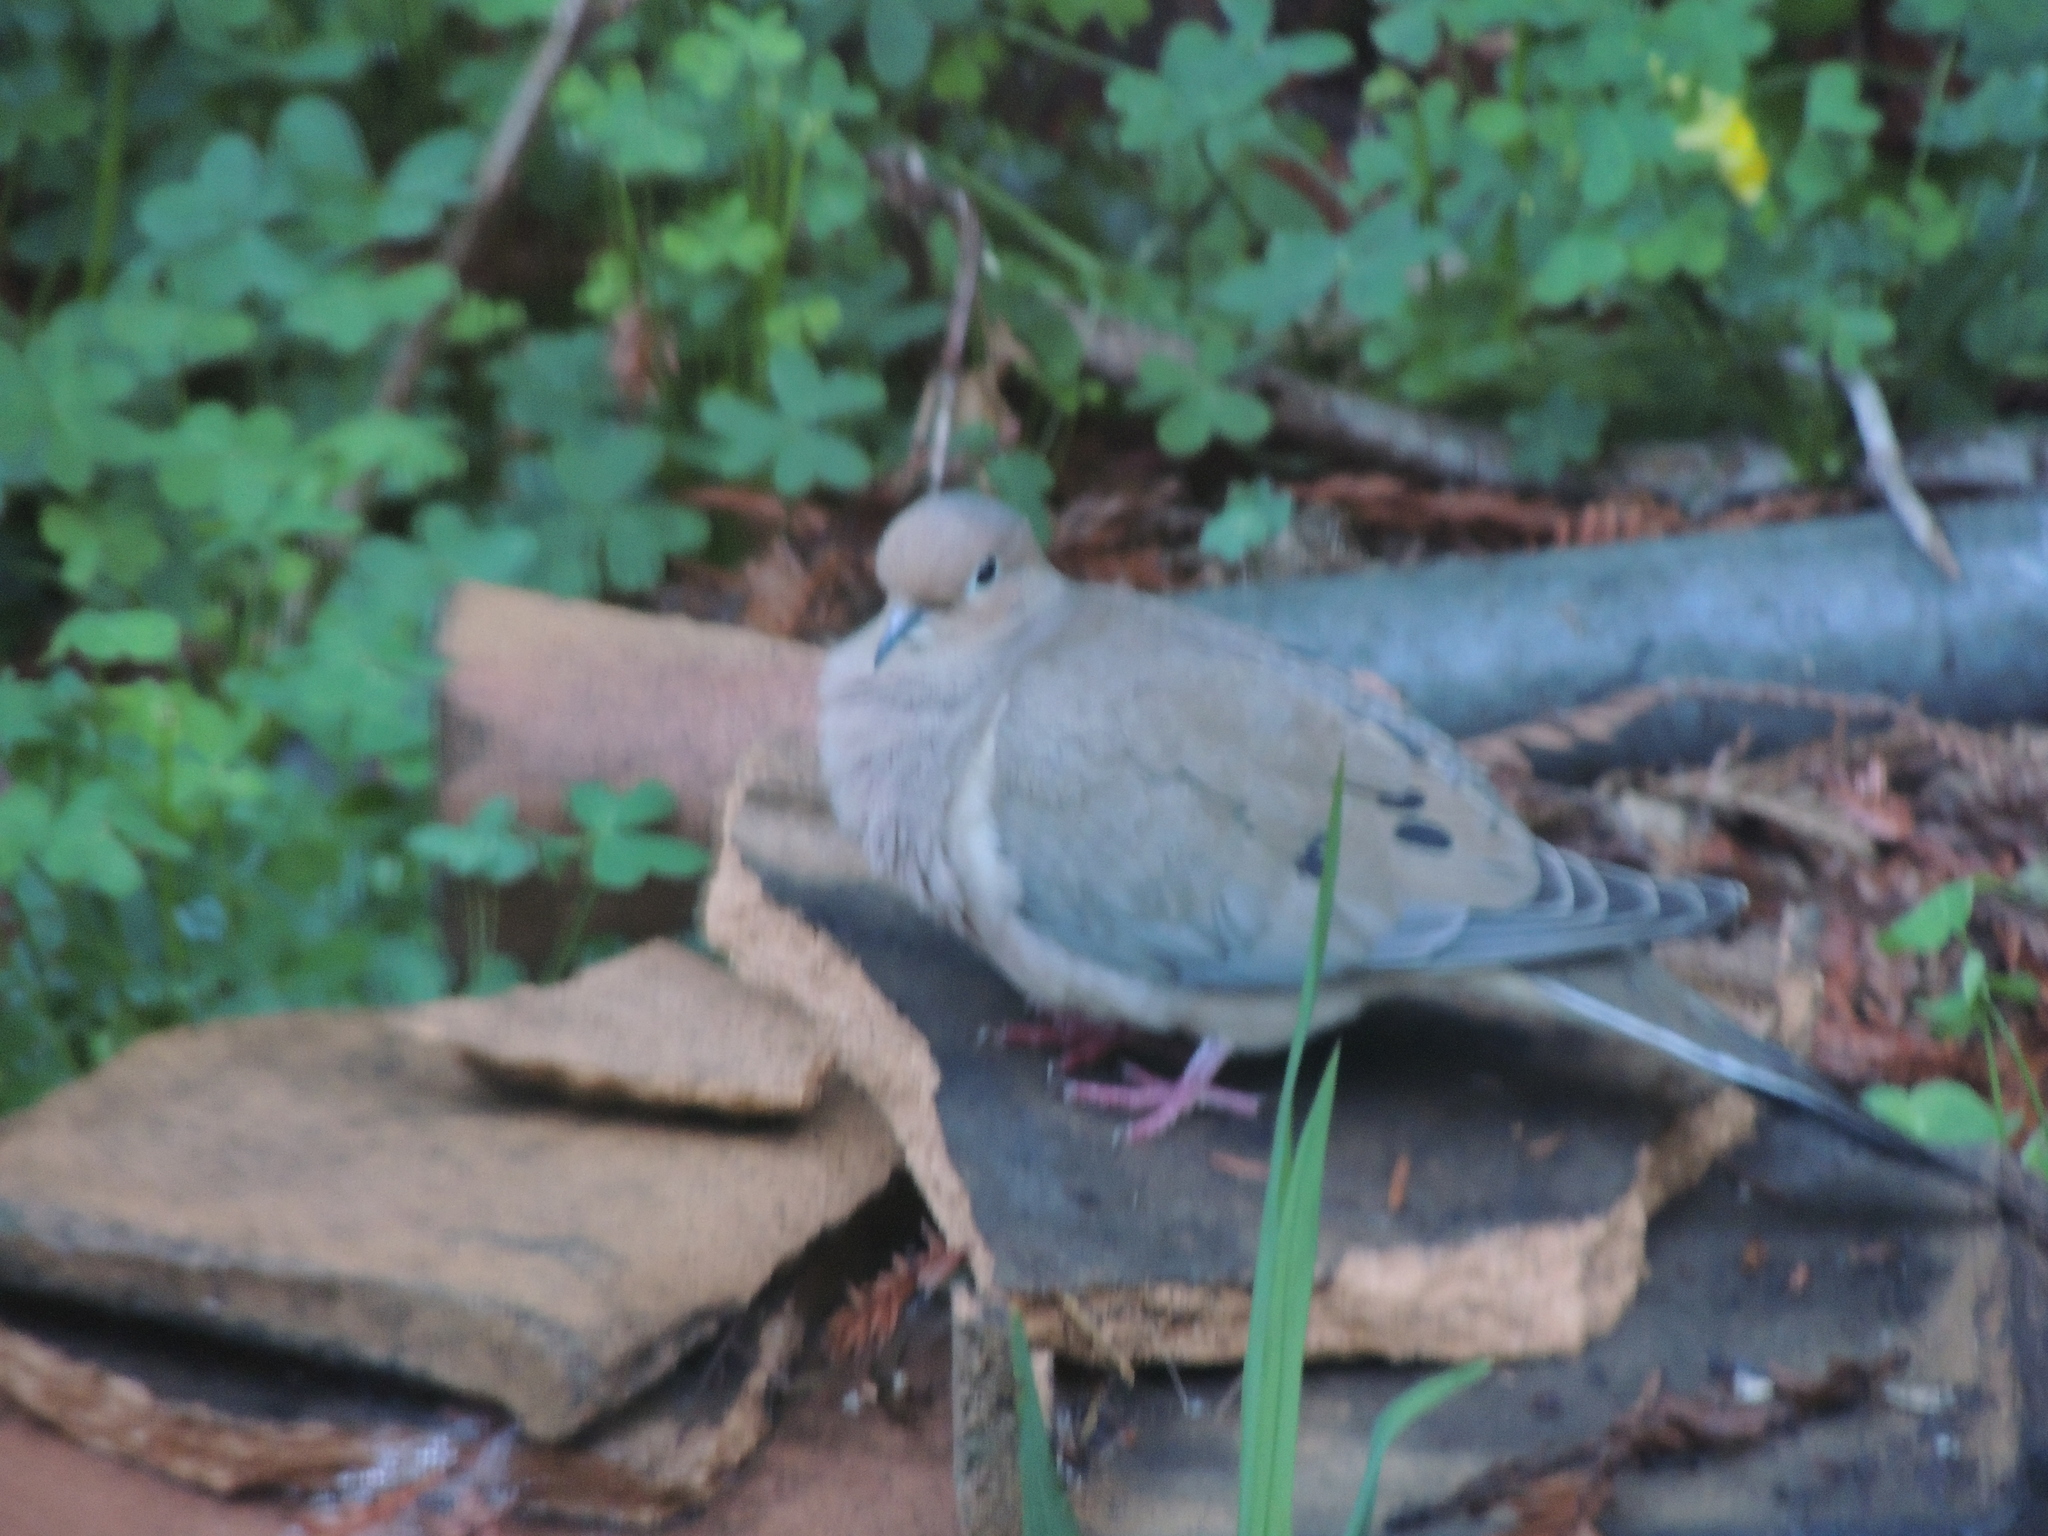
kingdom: Animalia
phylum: Chordata
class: Aves
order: Columbiformes
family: Columbidae
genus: Zenaida
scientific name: Zenaida macroura
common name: Mourning dove
